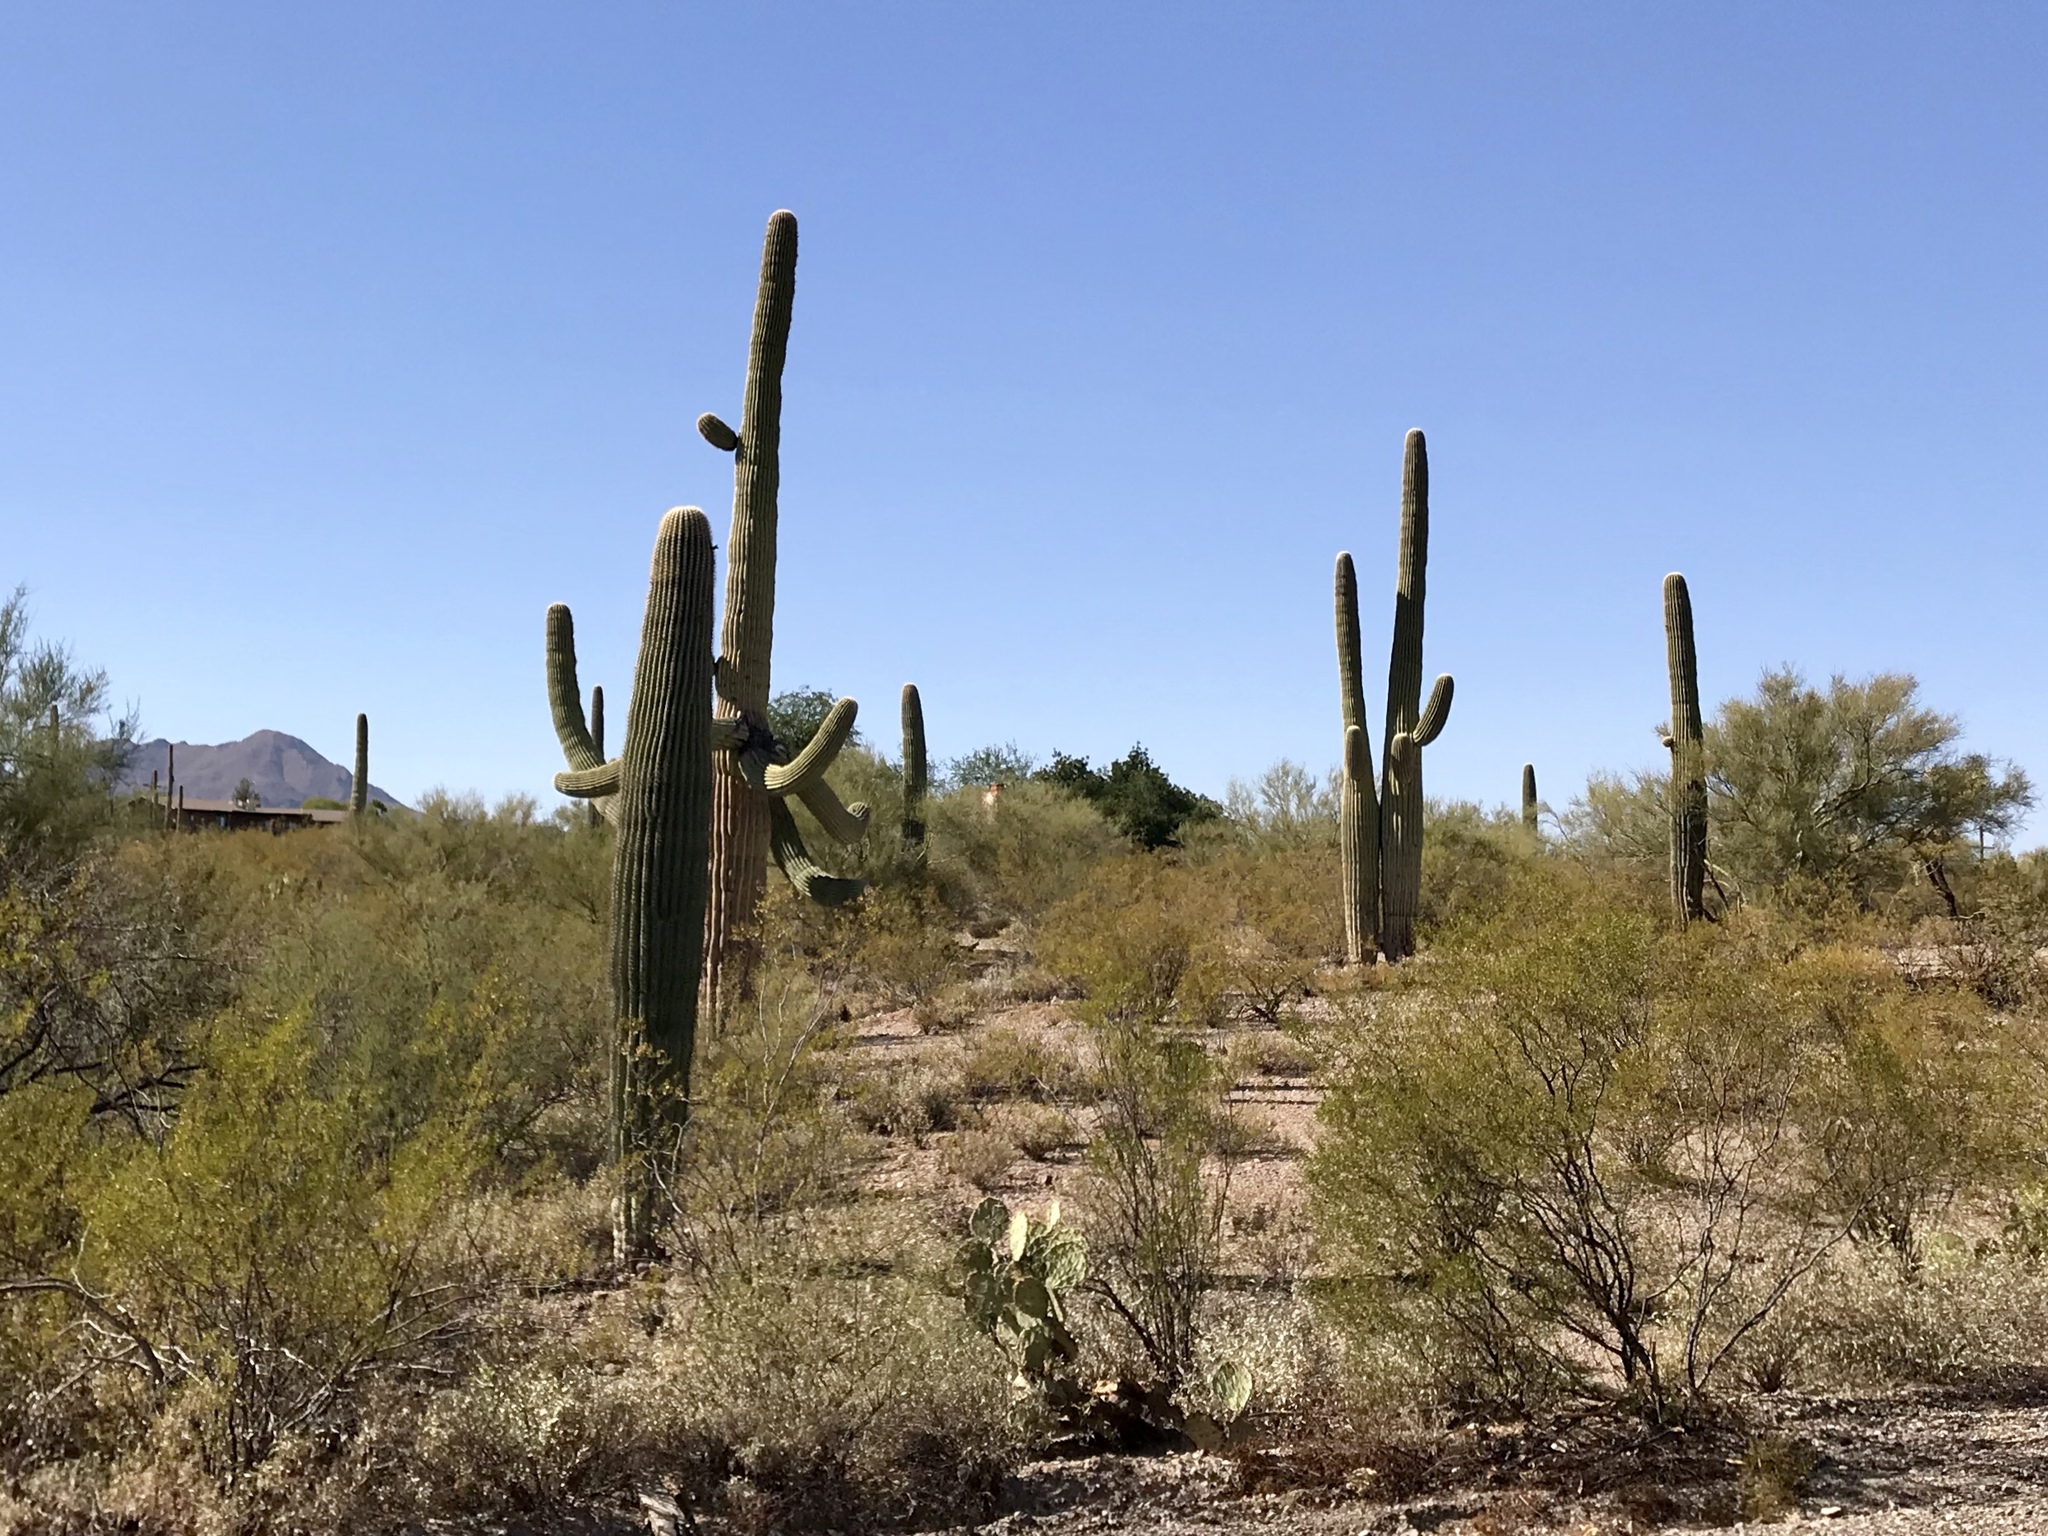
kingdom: Plantae
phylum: Tracheophyta
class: Magnoliopsida
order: Caryophyllales
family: Cactaceae
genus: Carnegiea
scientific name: Carnegiea gigantea
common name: Saguaro
